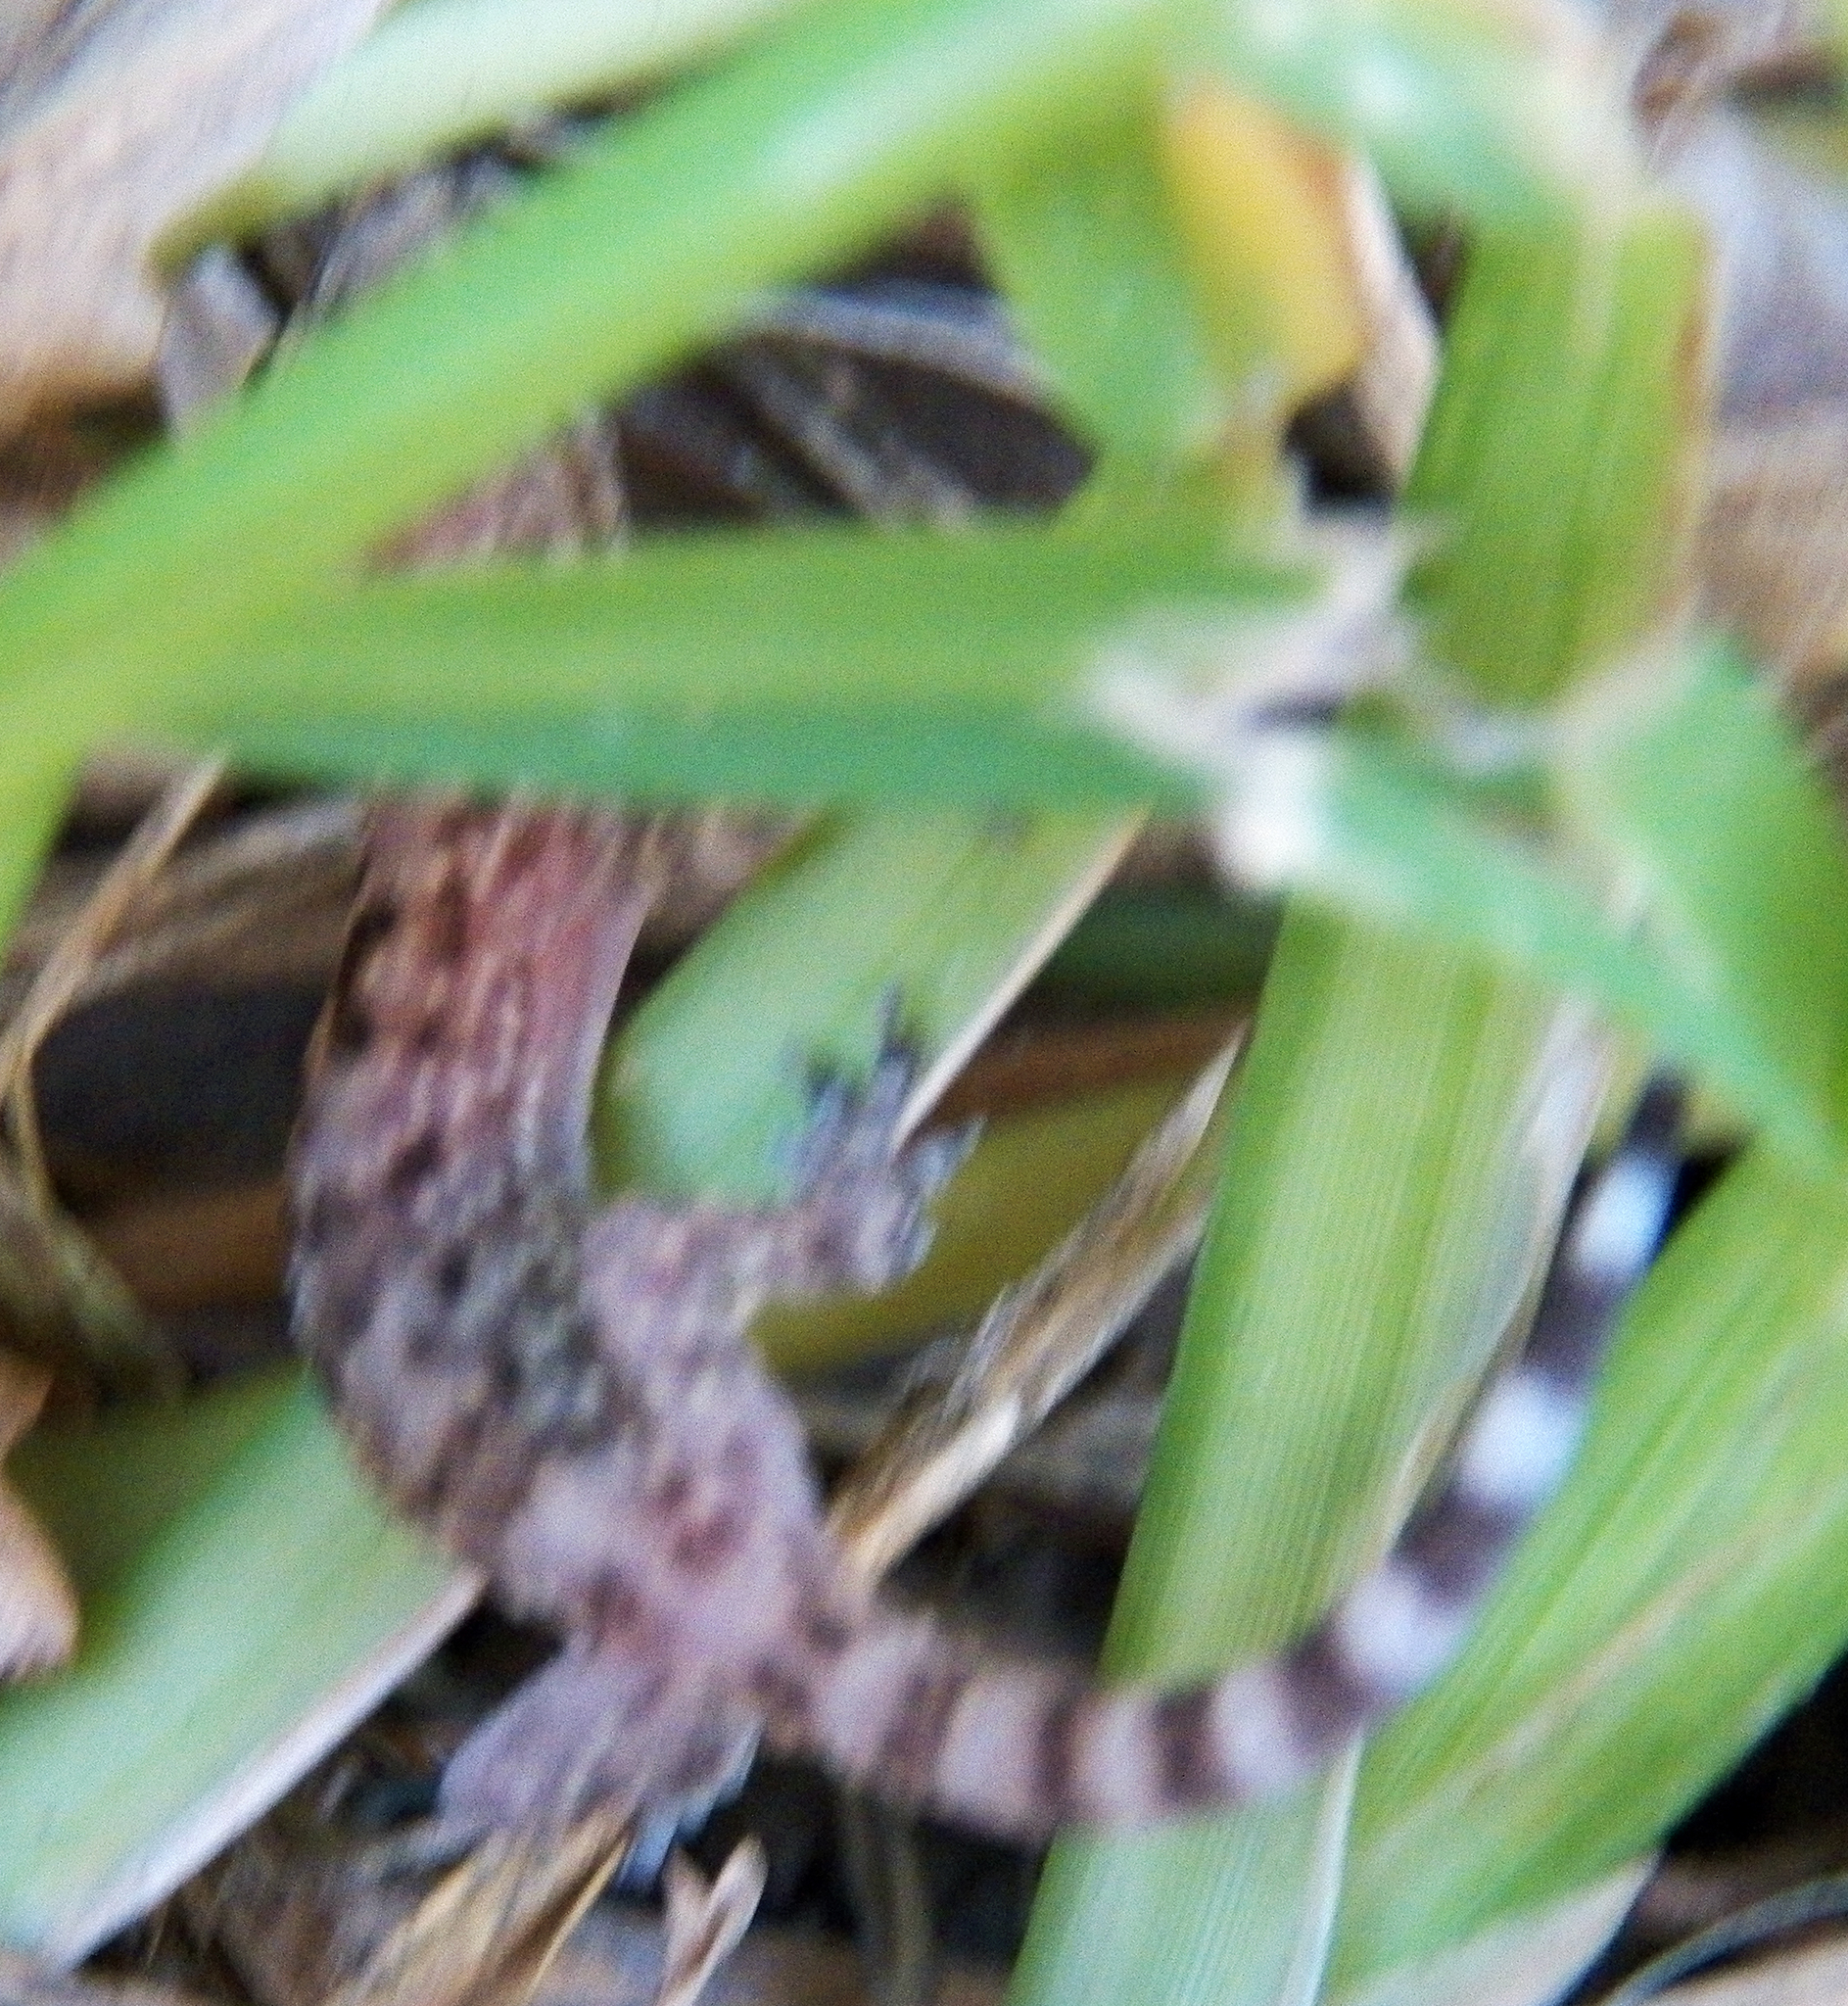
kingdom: Animalia
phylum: Chordata
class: Squamata
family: Gekkonidae
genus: Hemidactylus
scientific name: Hemidactylus turcicus
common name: Turkish gecko
